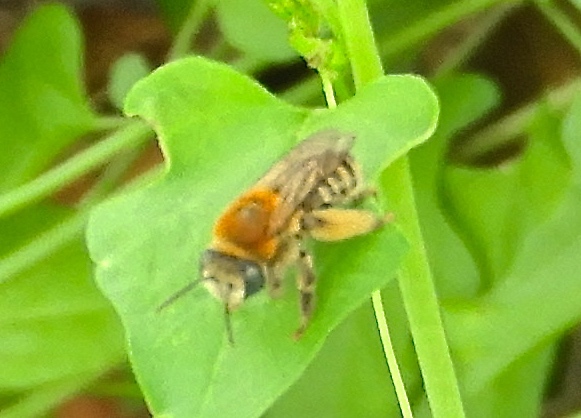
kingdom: Animalia
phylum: Arthropoda
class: Insecta
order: Hymenoptera
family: Apidae
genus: Apidae
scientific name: Apidae
